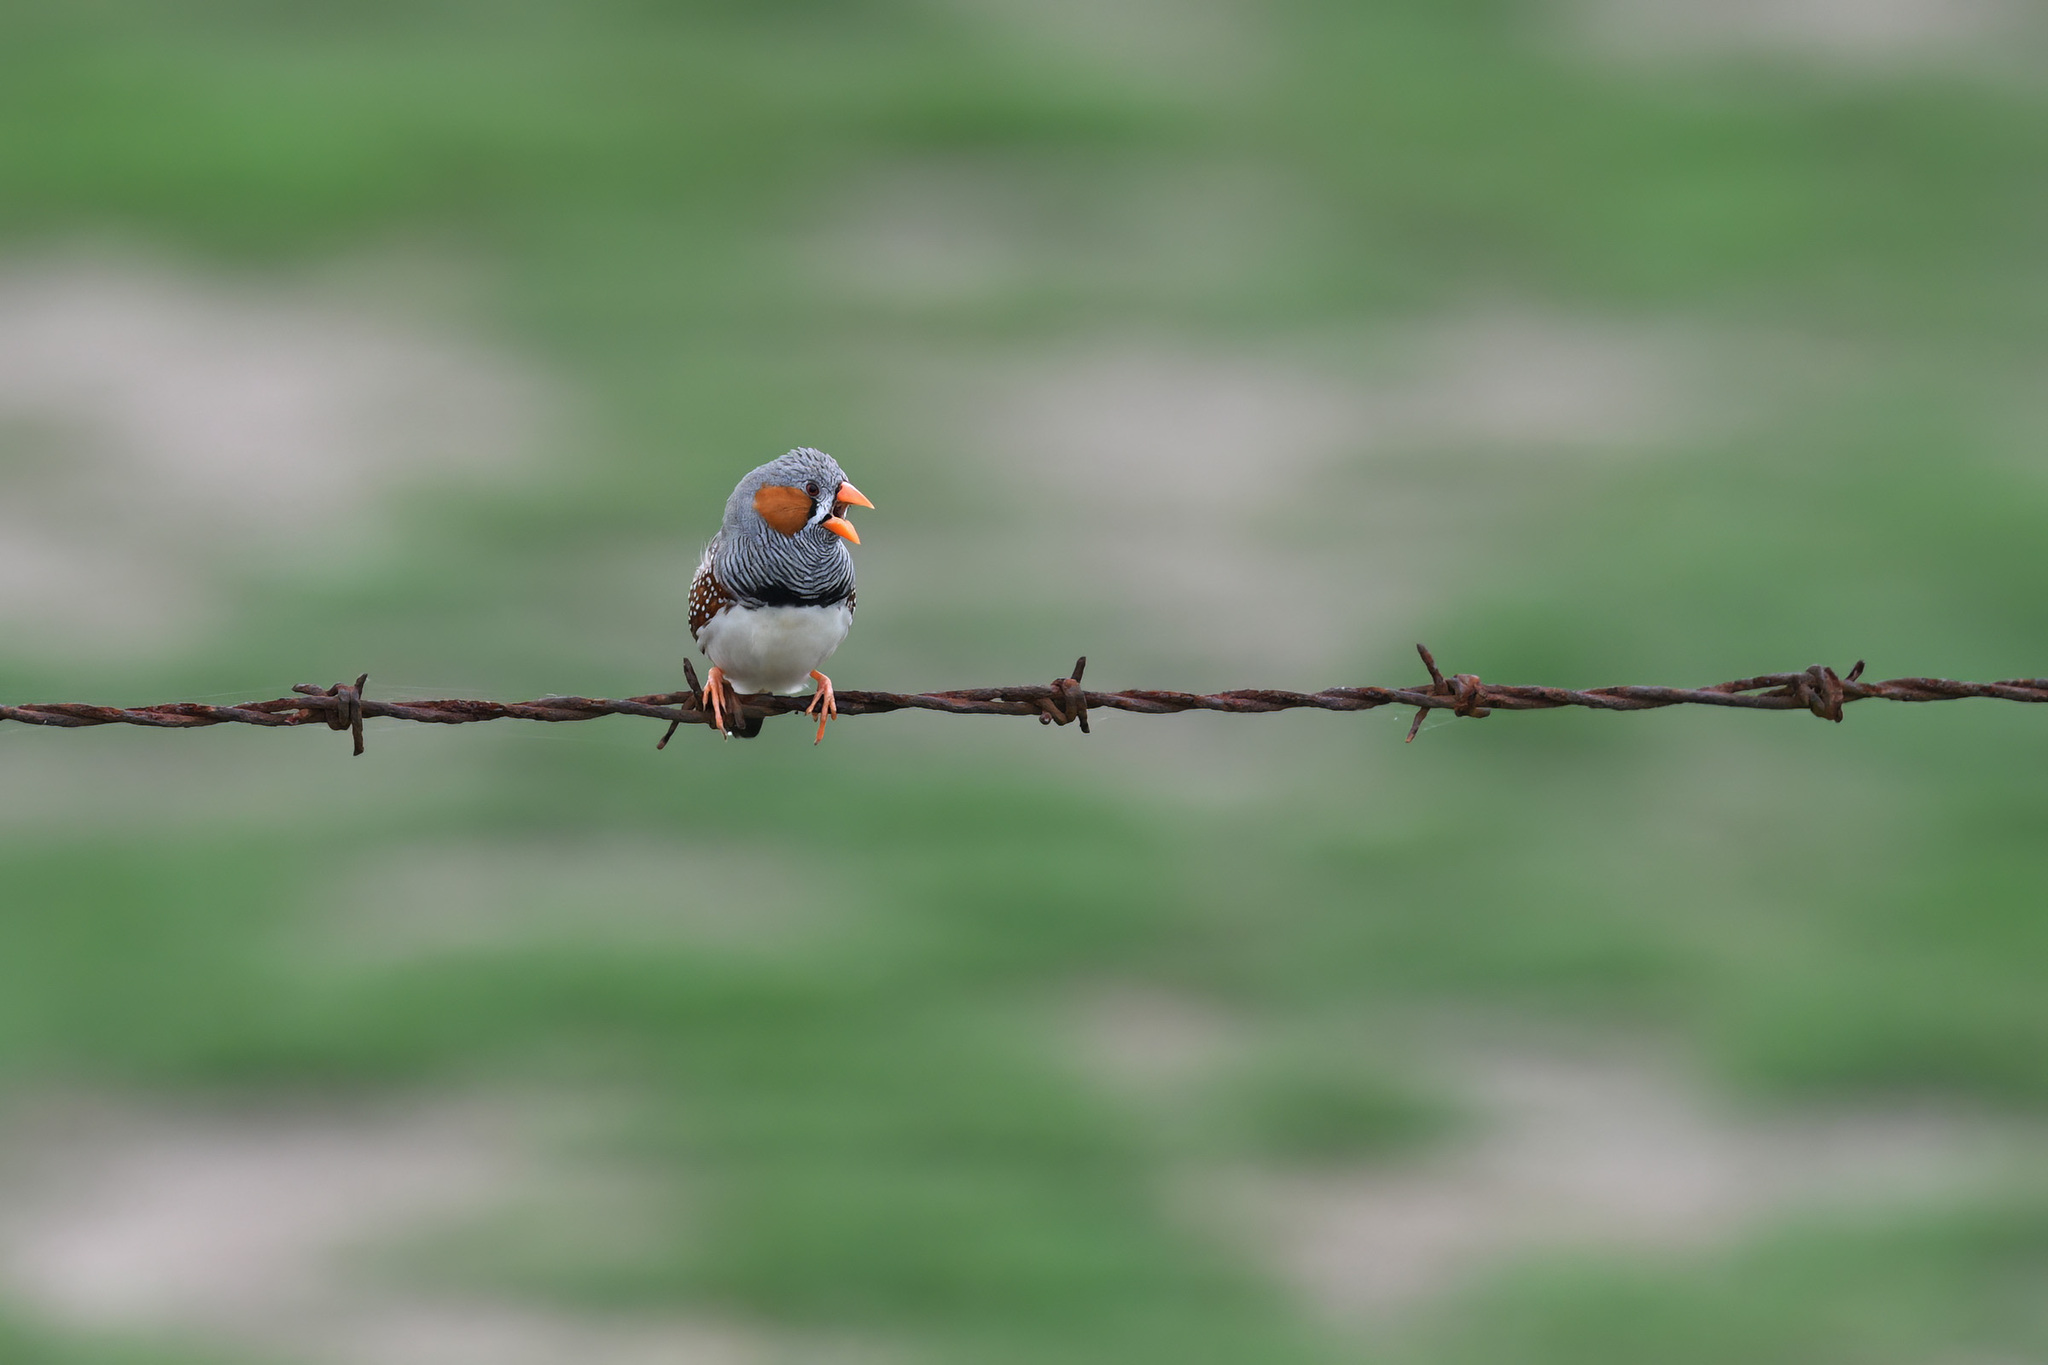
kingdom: Animalia
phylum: Chordata
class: Aves
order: Passeriformes
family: Estrildidae
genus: Taeniopygia
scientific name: Taeniopygia guttata
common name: Zebra finch
